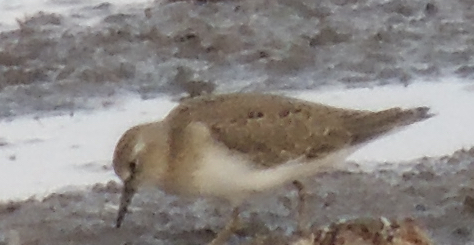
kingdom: Animalia
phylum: Chordata
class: Aves
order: Charadriiformes
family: Scolopacidae
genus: Calidris
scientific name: Calidris temminckii
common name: Temminck's stint
